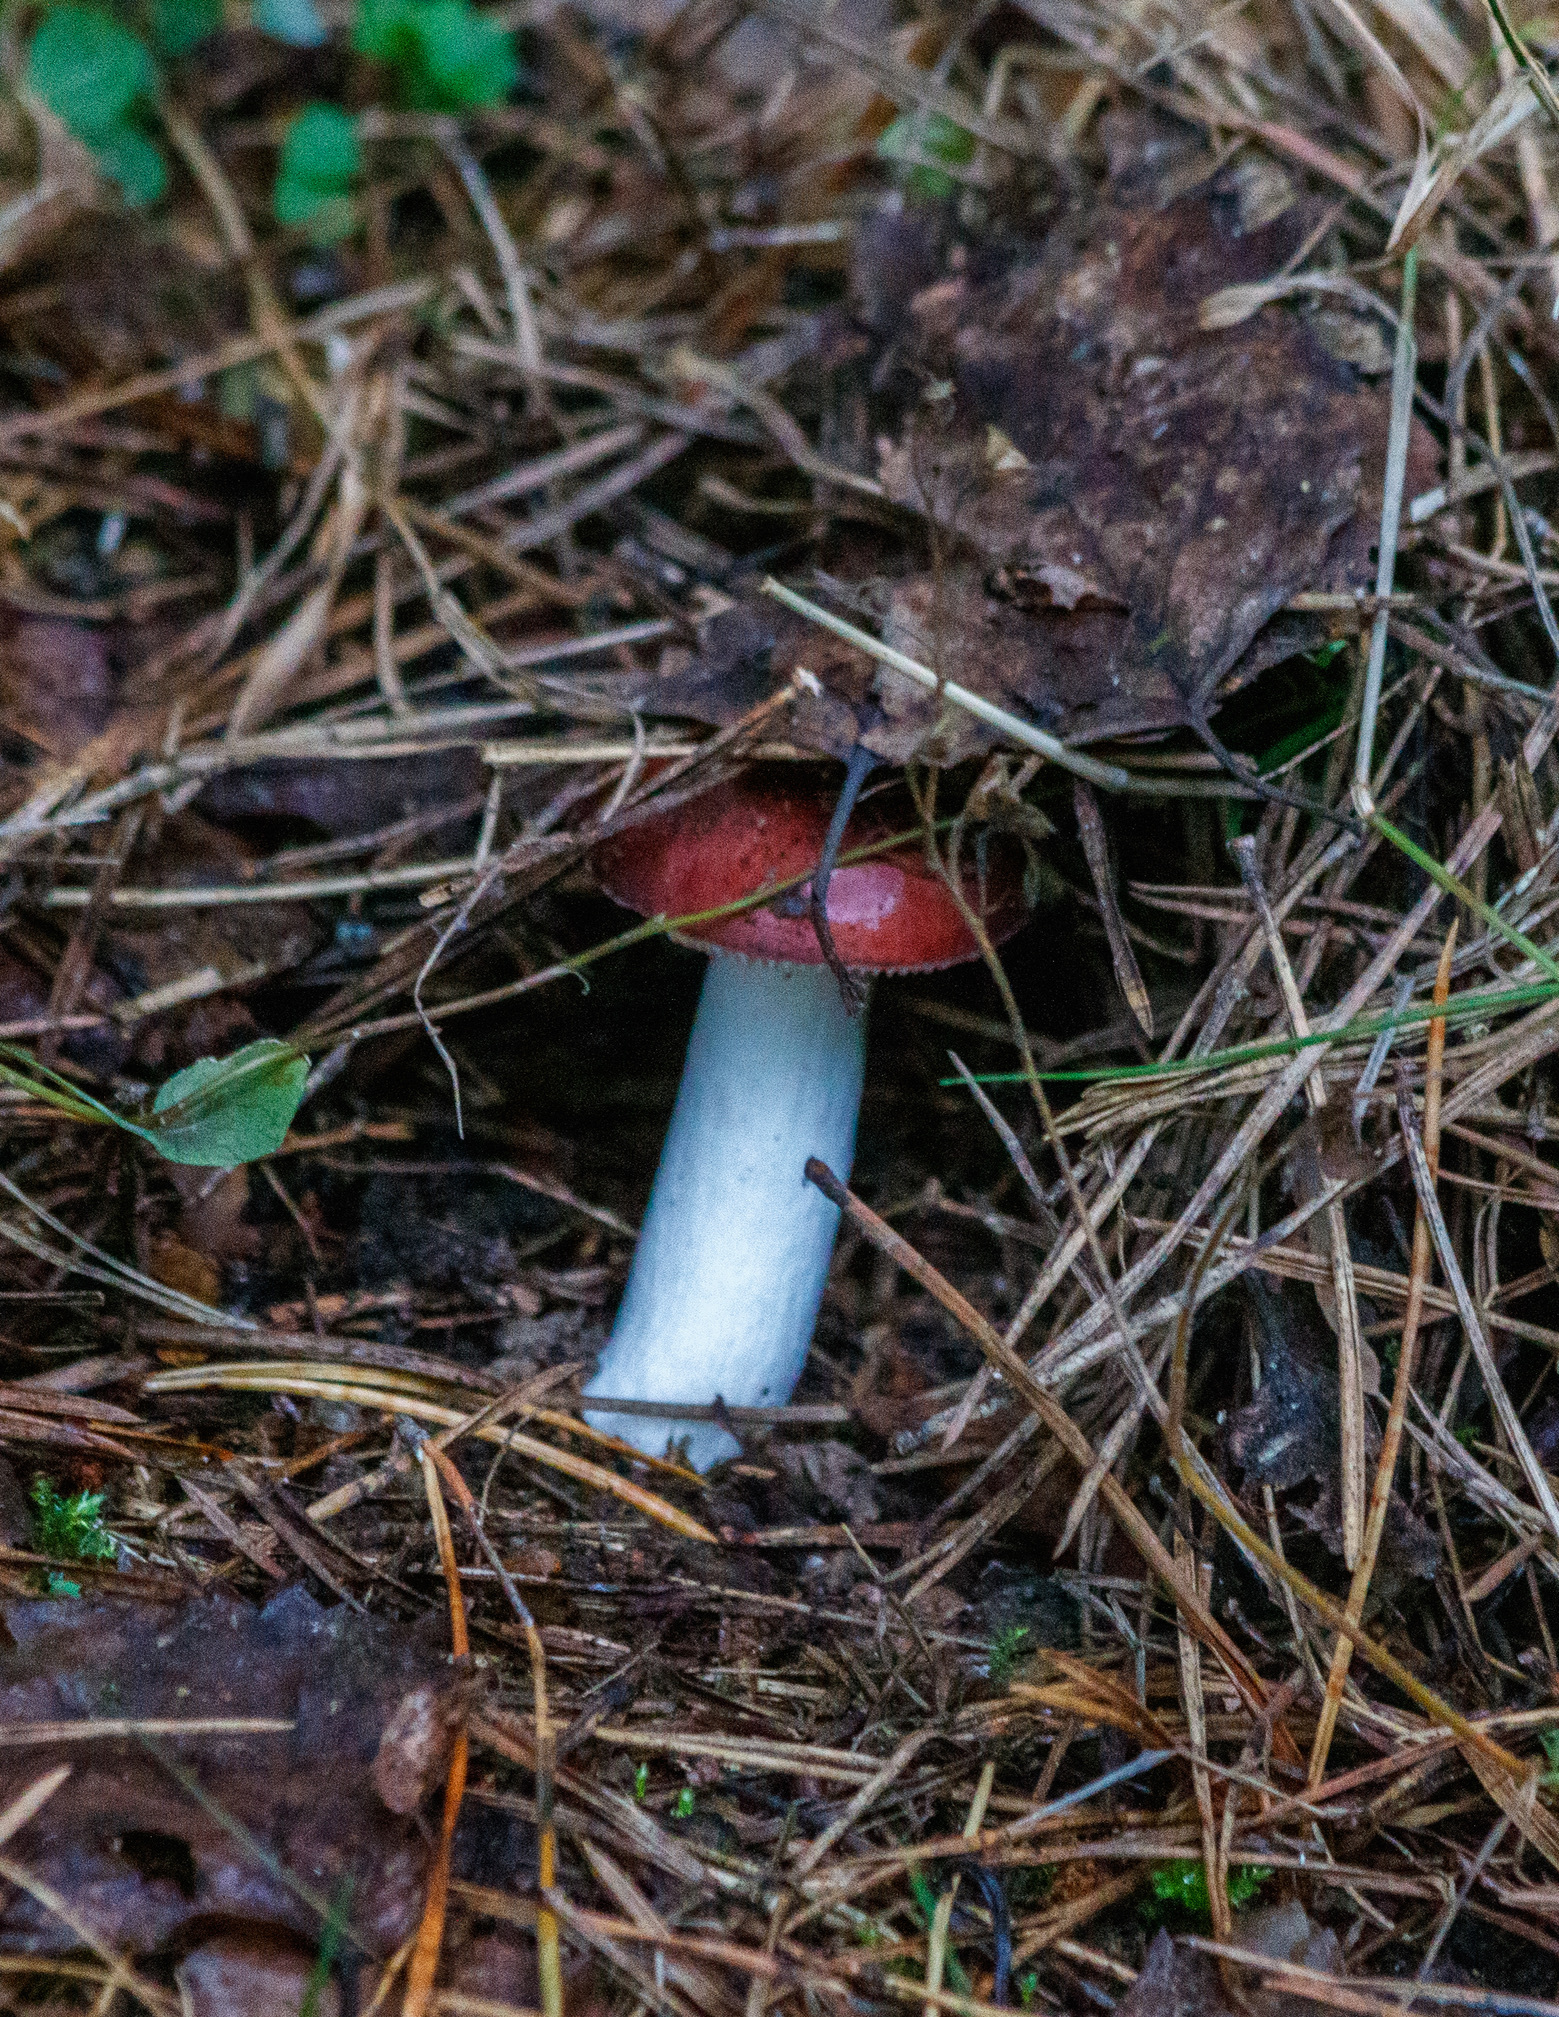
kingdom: Fungi
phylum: Basidiomycota
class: Agaricomycetes
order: Russulales
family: Russulaceae
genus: Russula
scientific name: Russula sanguinea
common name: Bloody brittlegill
